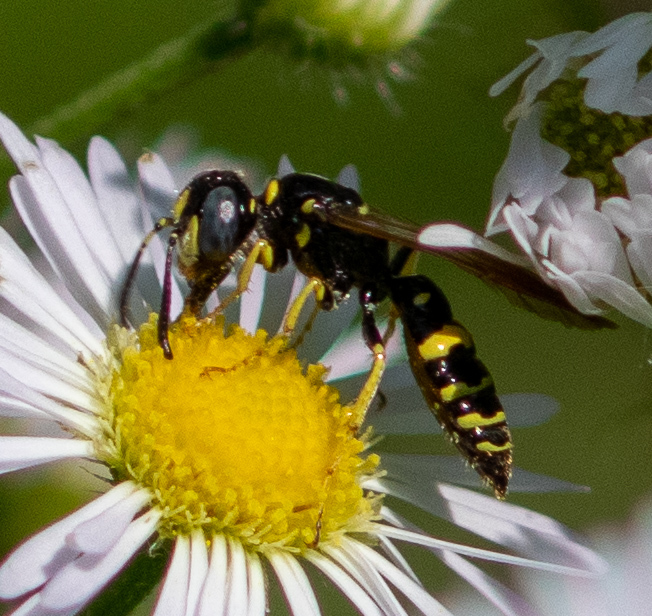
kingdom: Animalia
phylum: Arthropoda
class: Insecta
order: Hymenoptera
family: Crabronidae
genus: Philanthus
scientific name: Philanthus bilunatus
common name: Two moons beewolf
